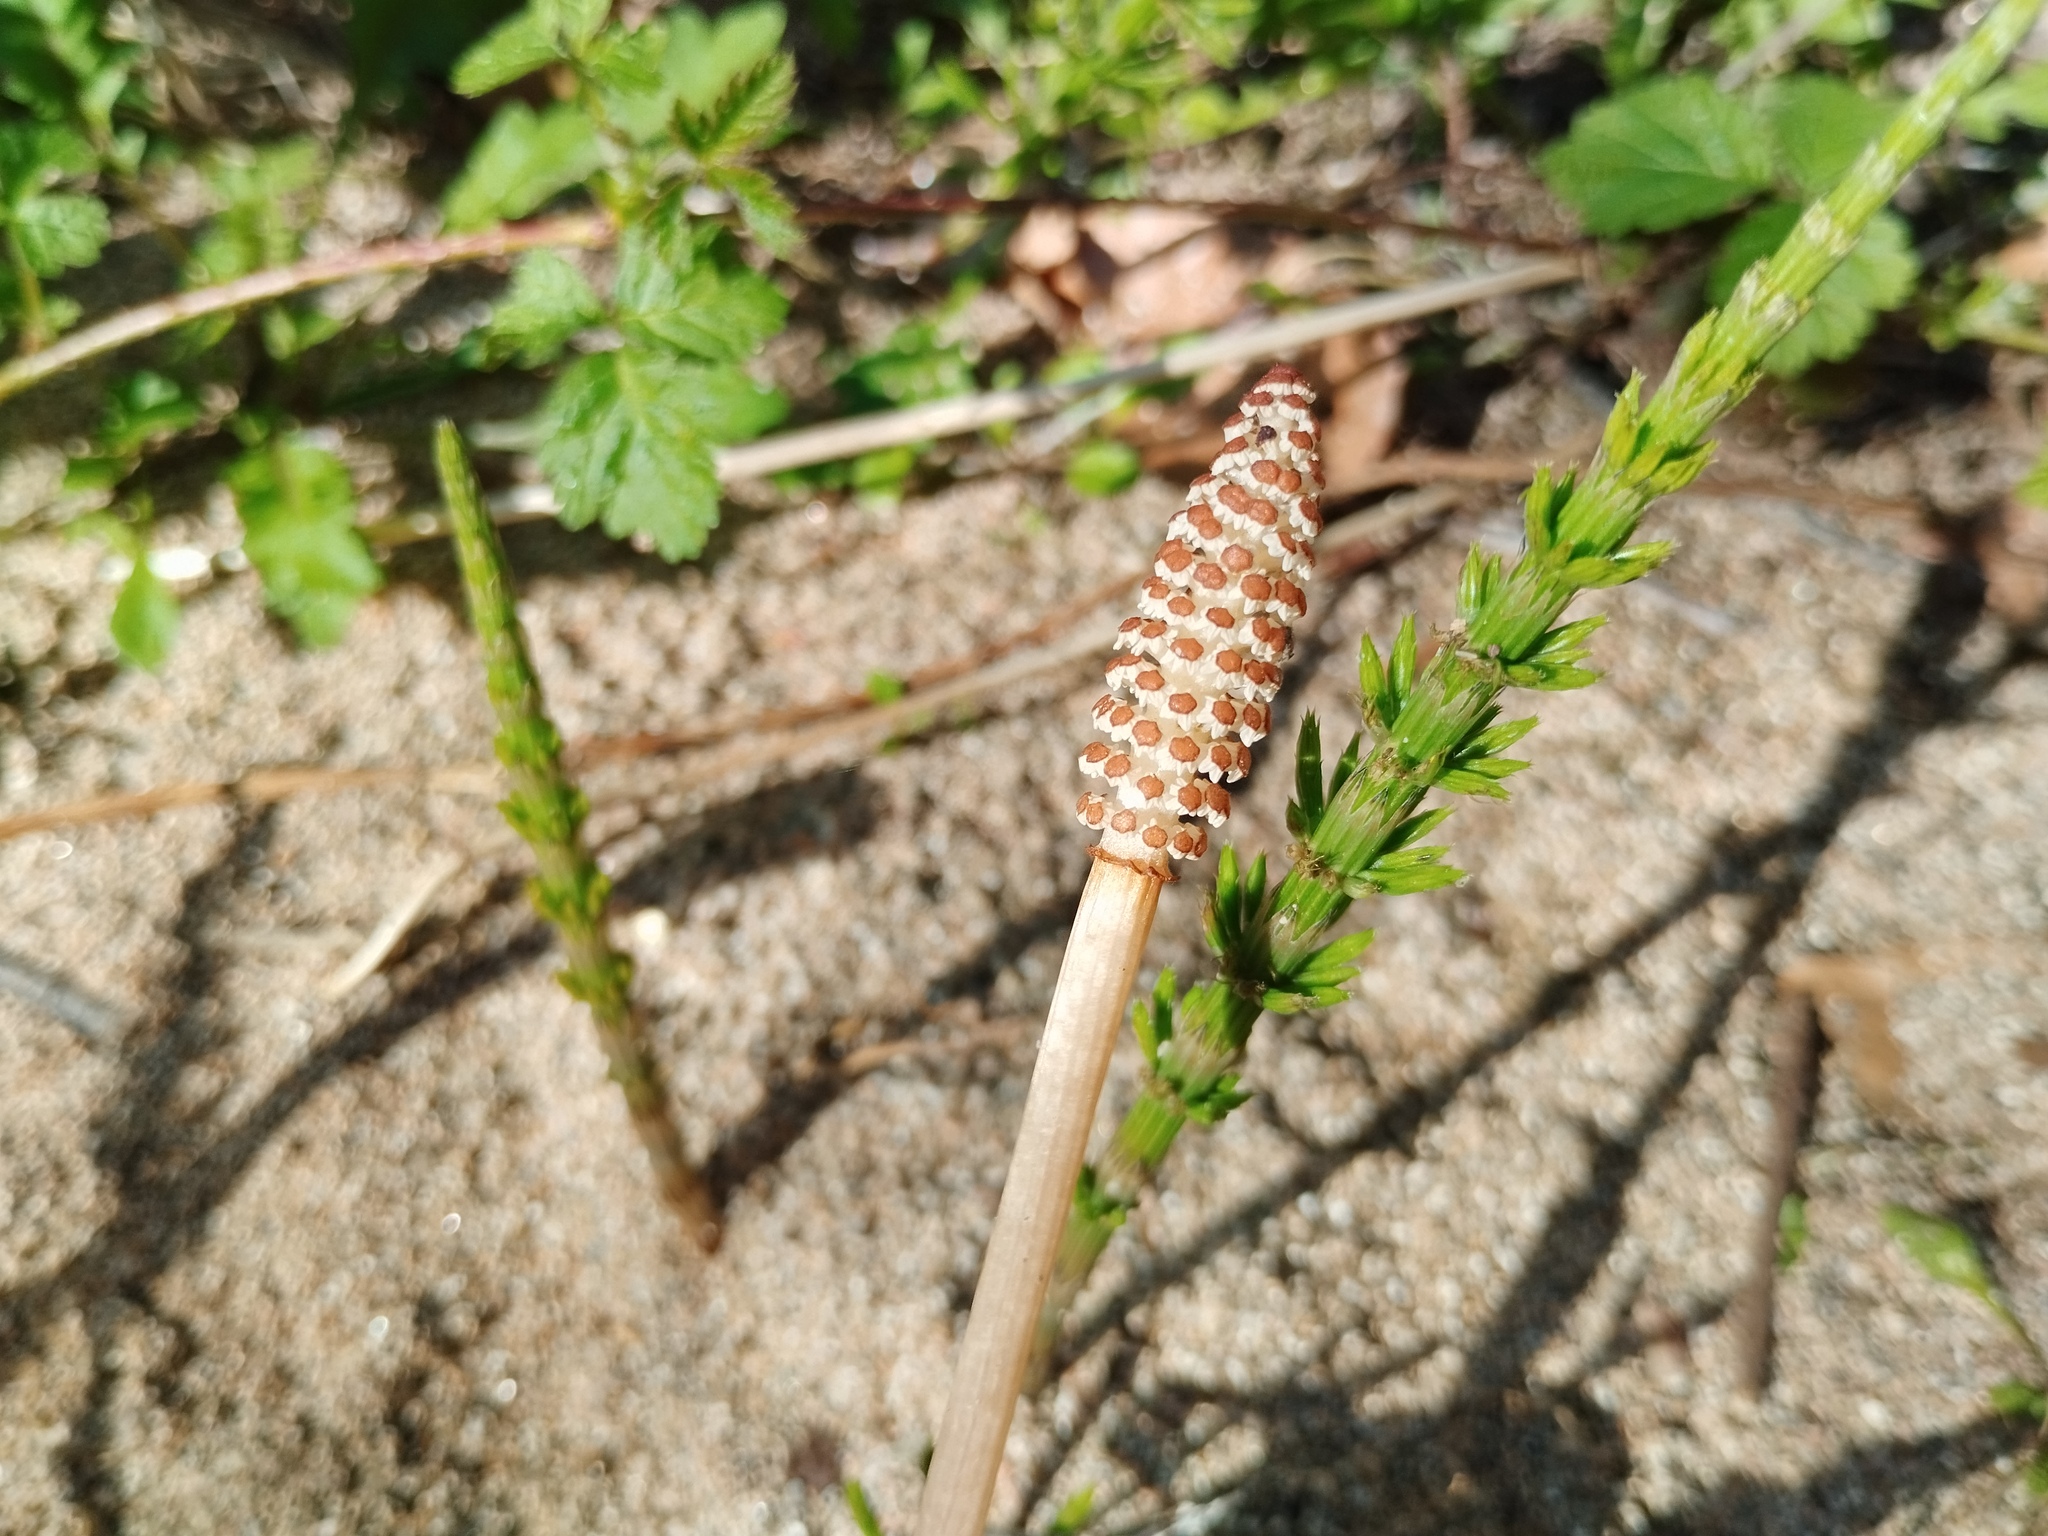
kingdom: Plantae
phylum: Tracheophyta
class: Polypodiopsida
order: Equisetales
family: Equisetaceae
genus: Equisetum
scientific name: Equisetum arvense
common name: Field horsetail
